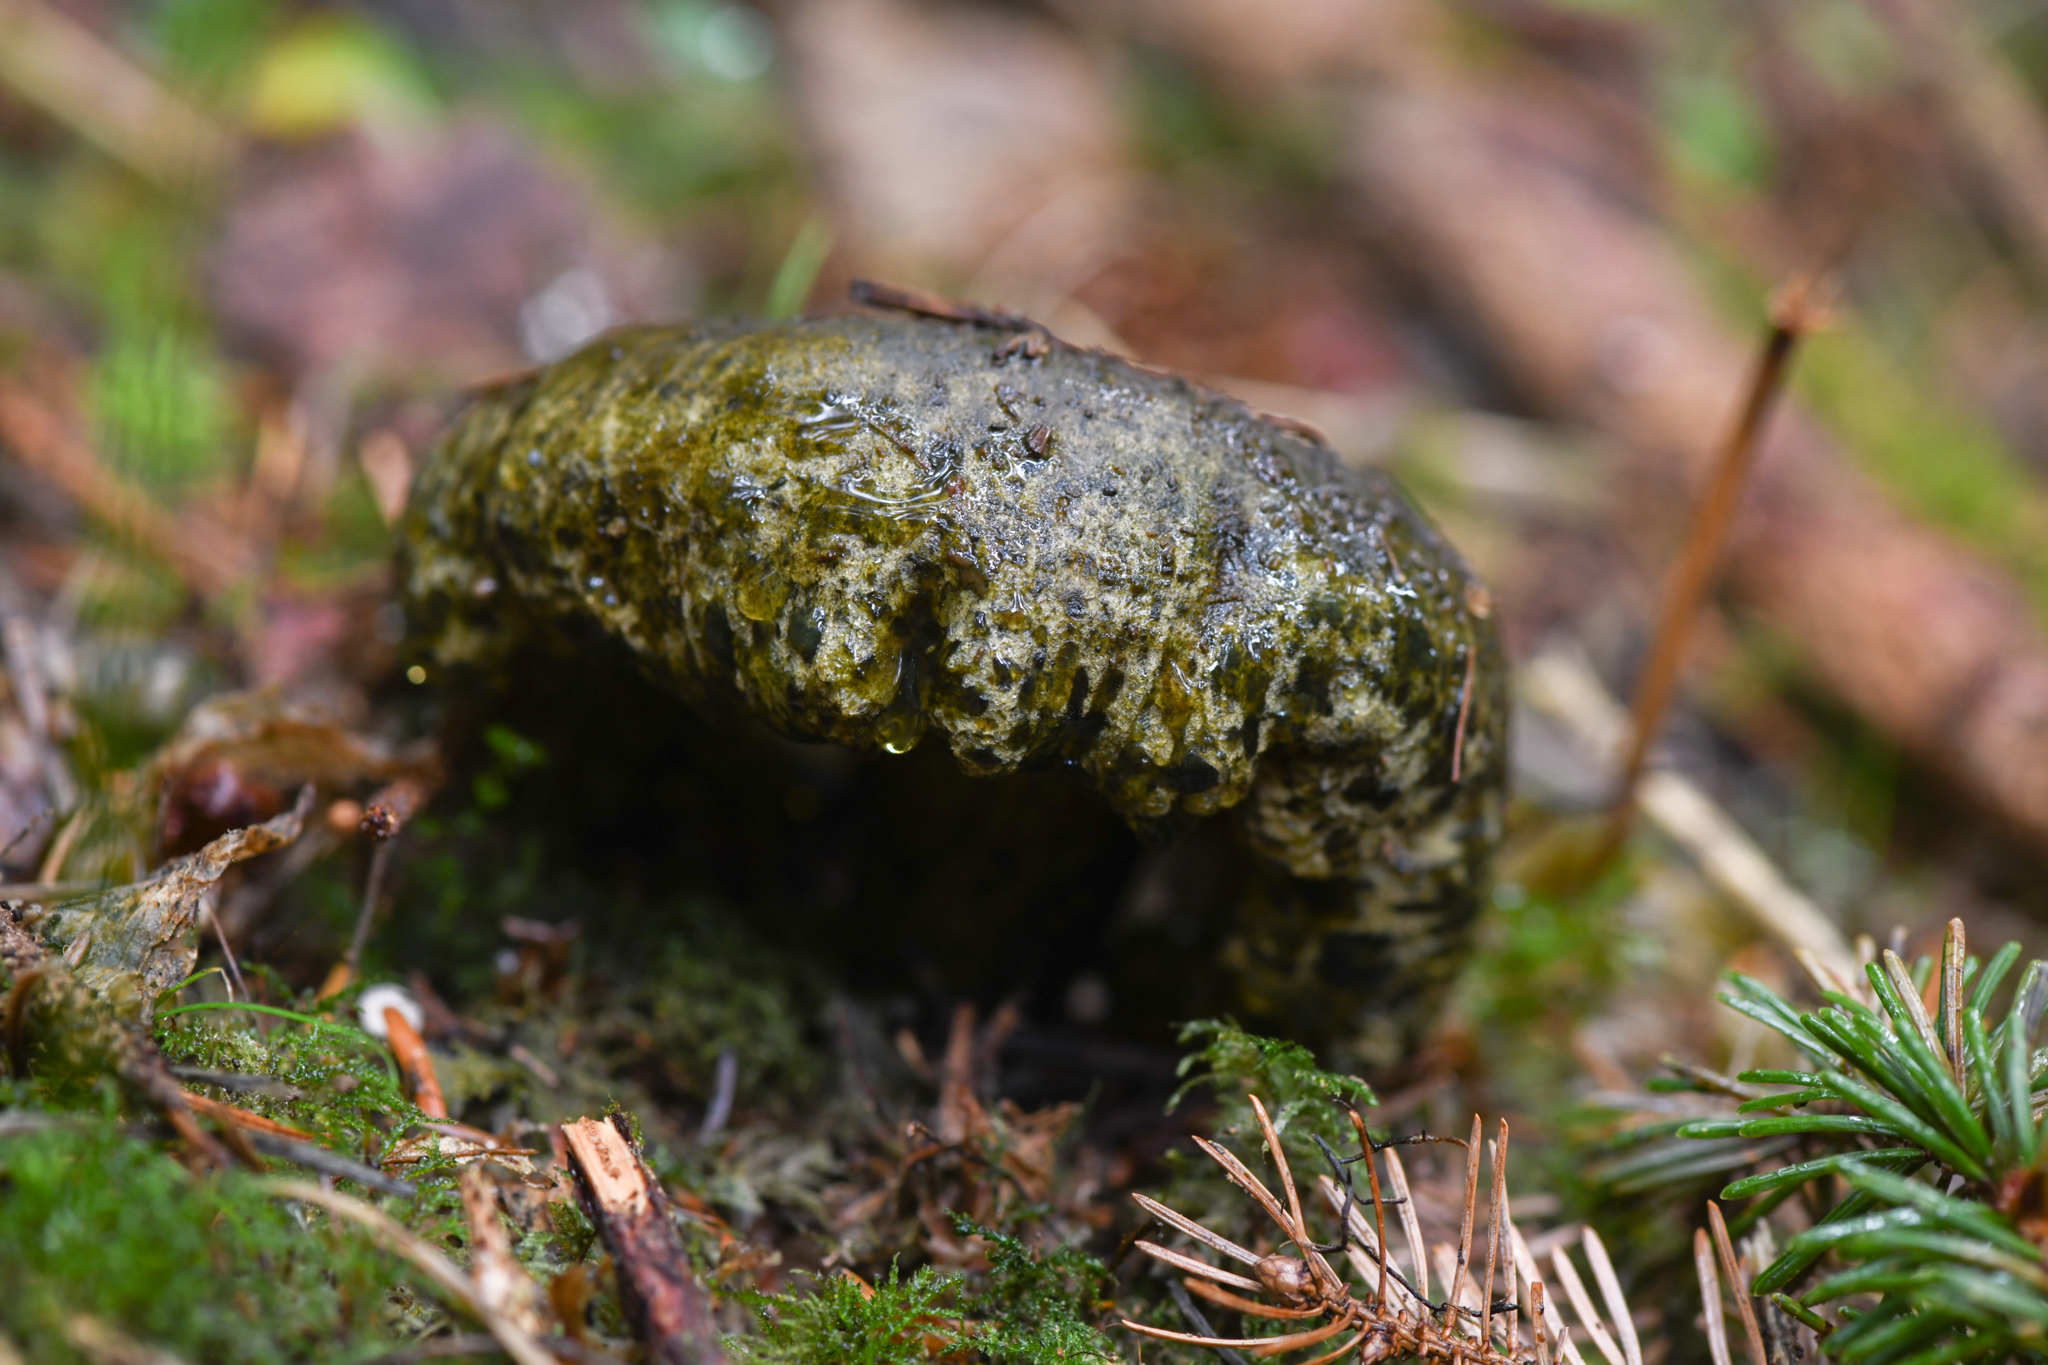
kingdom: Fungi
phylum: Basidiomycota
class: Agaricomycetes
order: Russulales
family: Russulaceae
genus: Lactarius
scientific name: Lactarius olivaceoumbrinus
